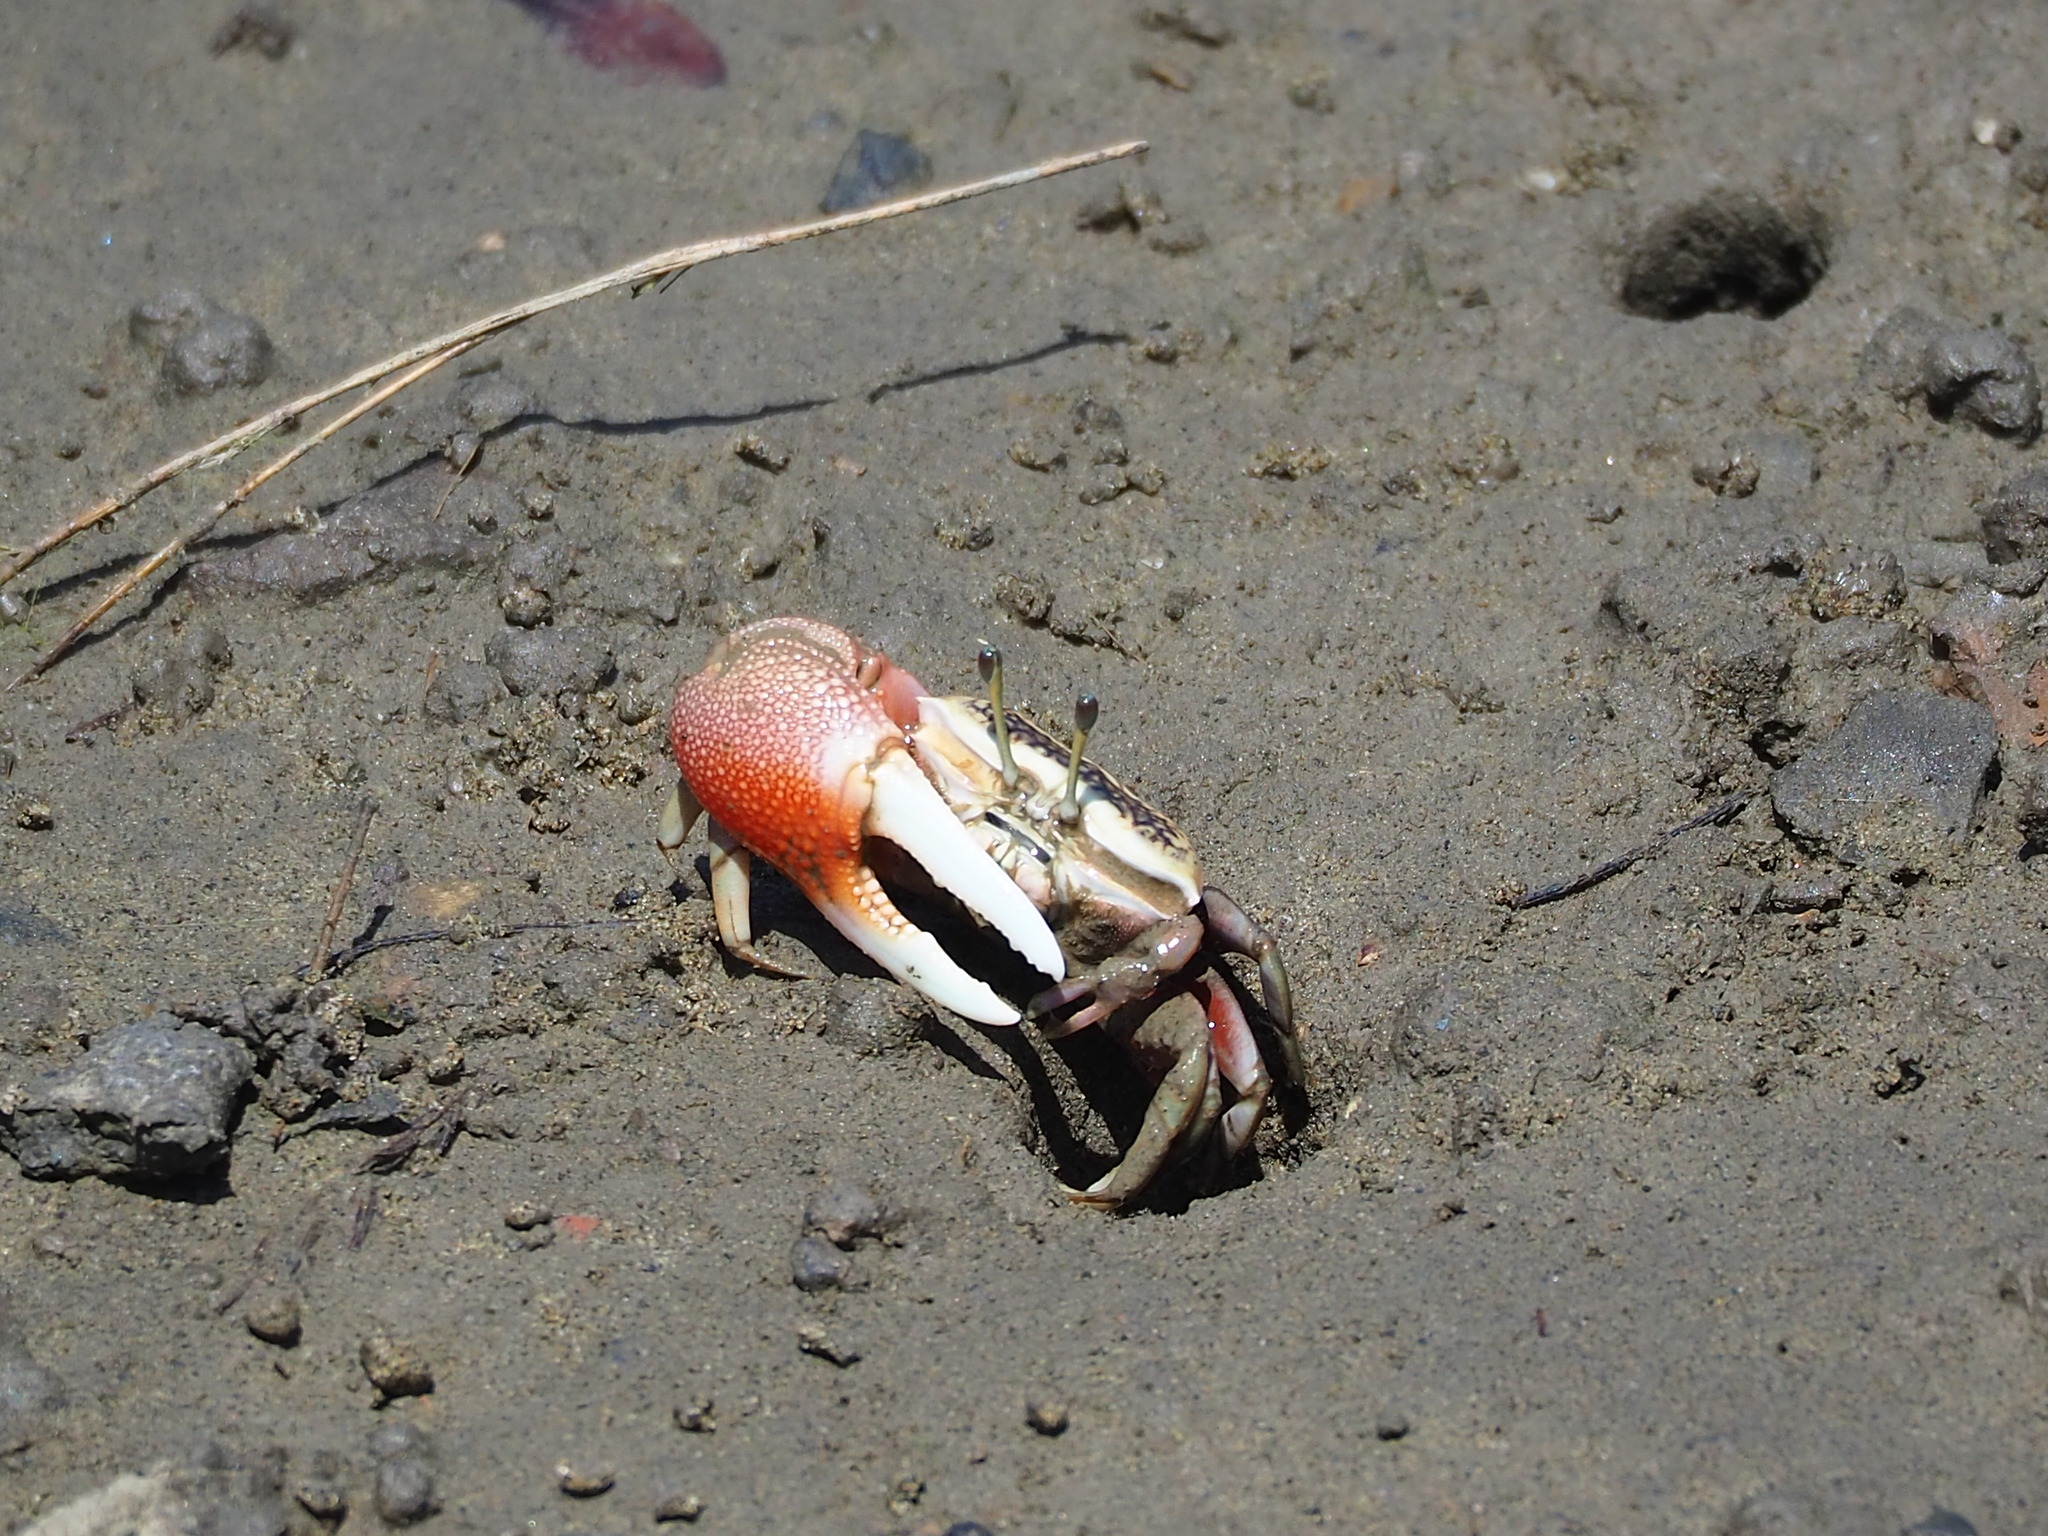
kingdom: Animalia
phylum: Arthropoda
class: Malacostraca
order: Decapoda
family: Ocypodidae
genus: Tubuca
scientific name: Tubuca arcuata
